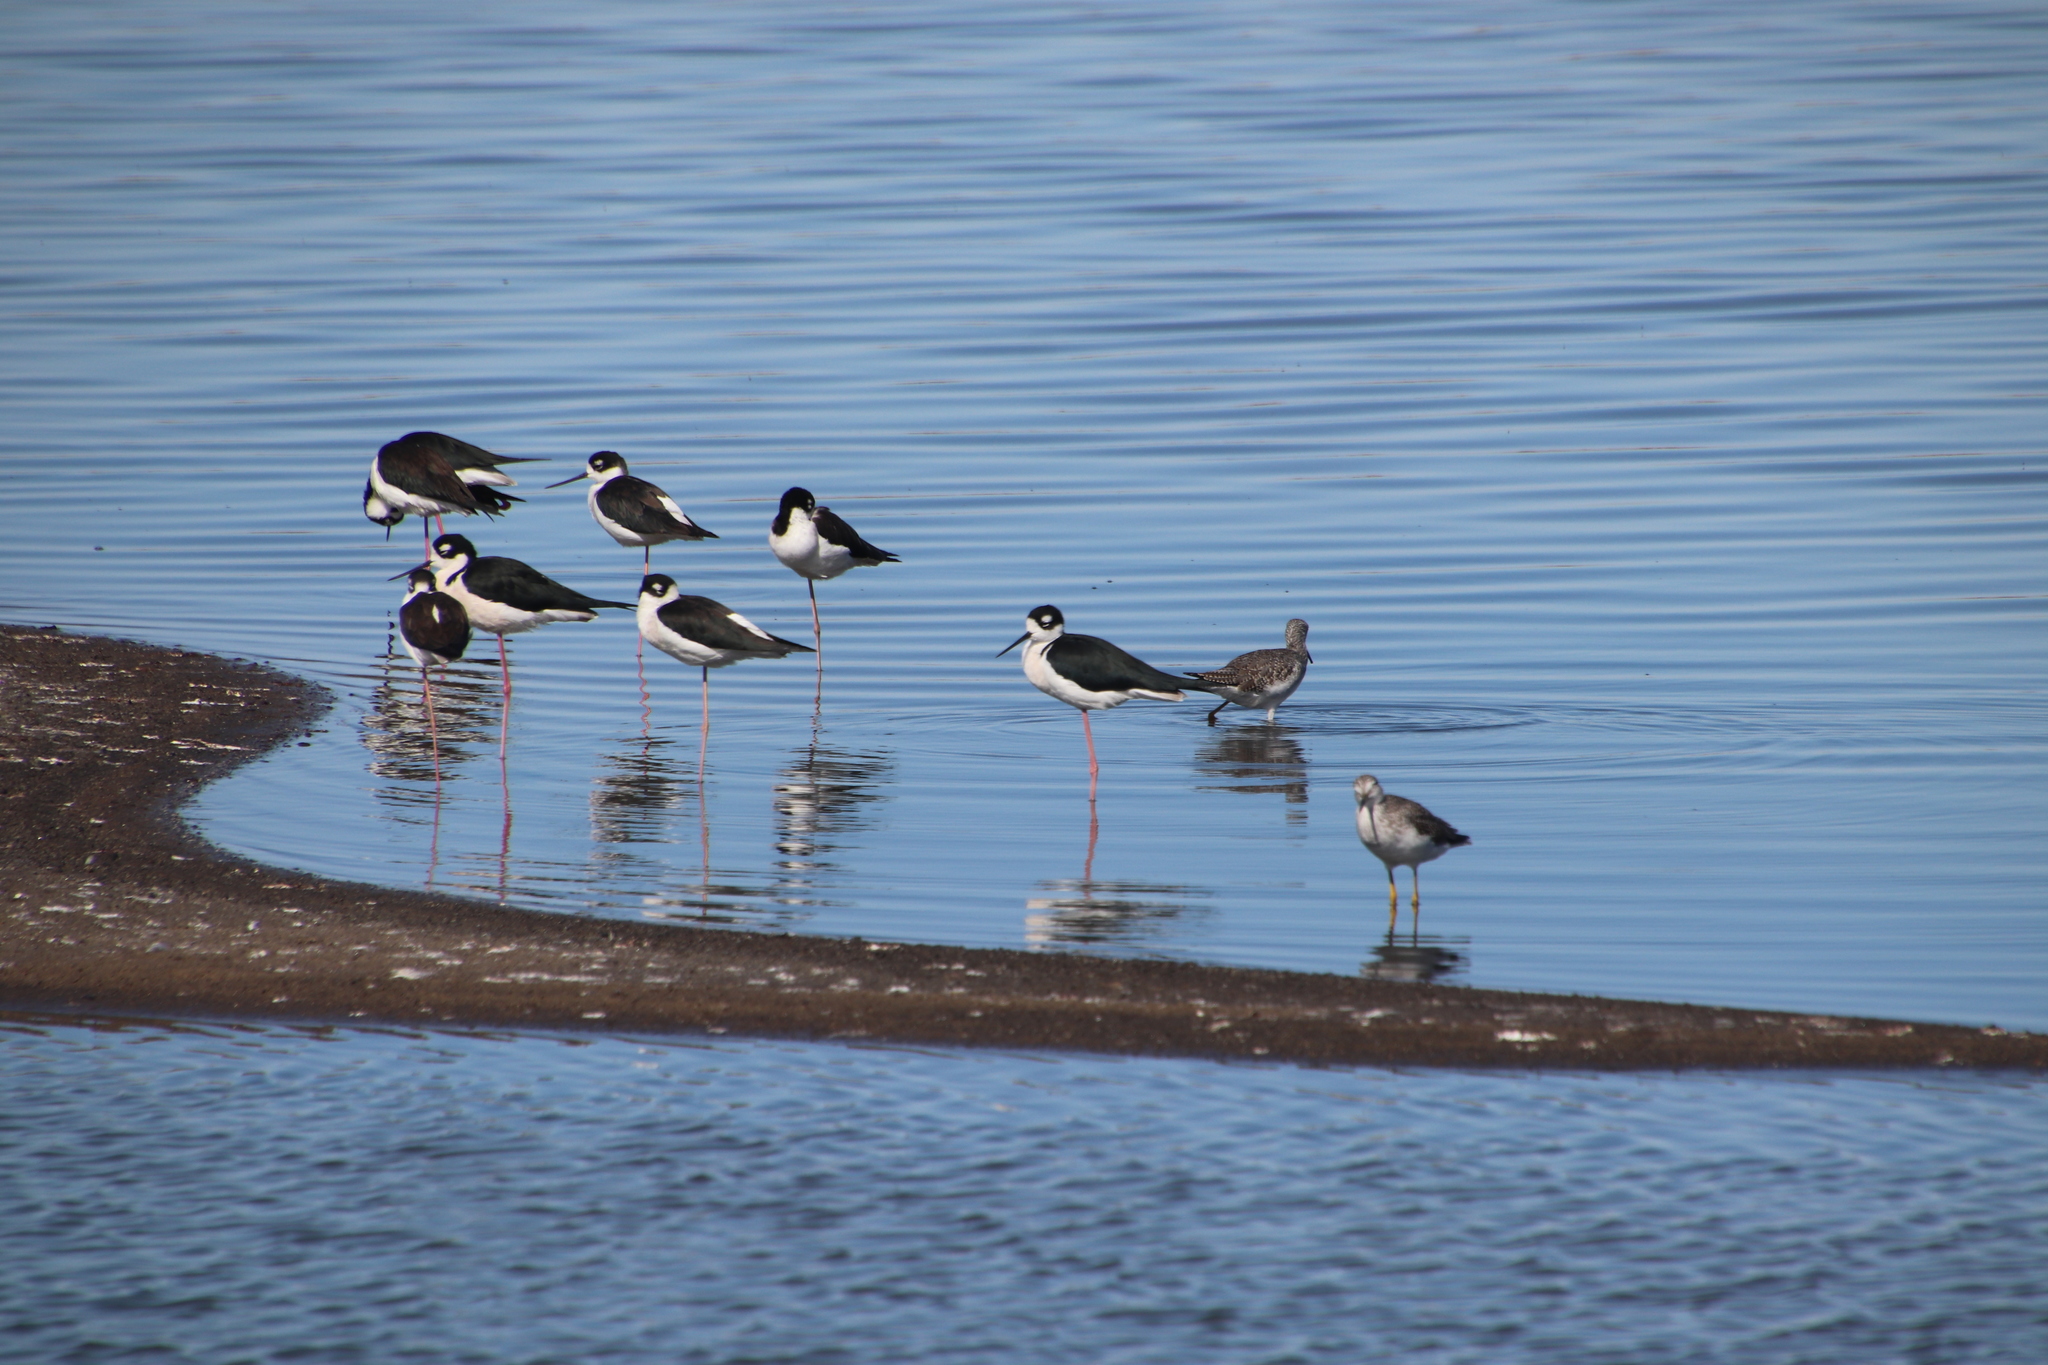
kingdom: Animalia
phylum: Chordata
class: Aves
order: Charadriiformes
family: Recurvirostridae
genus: Himantopus
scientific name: Himantopus mexicanus
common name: Black-necked stilt
